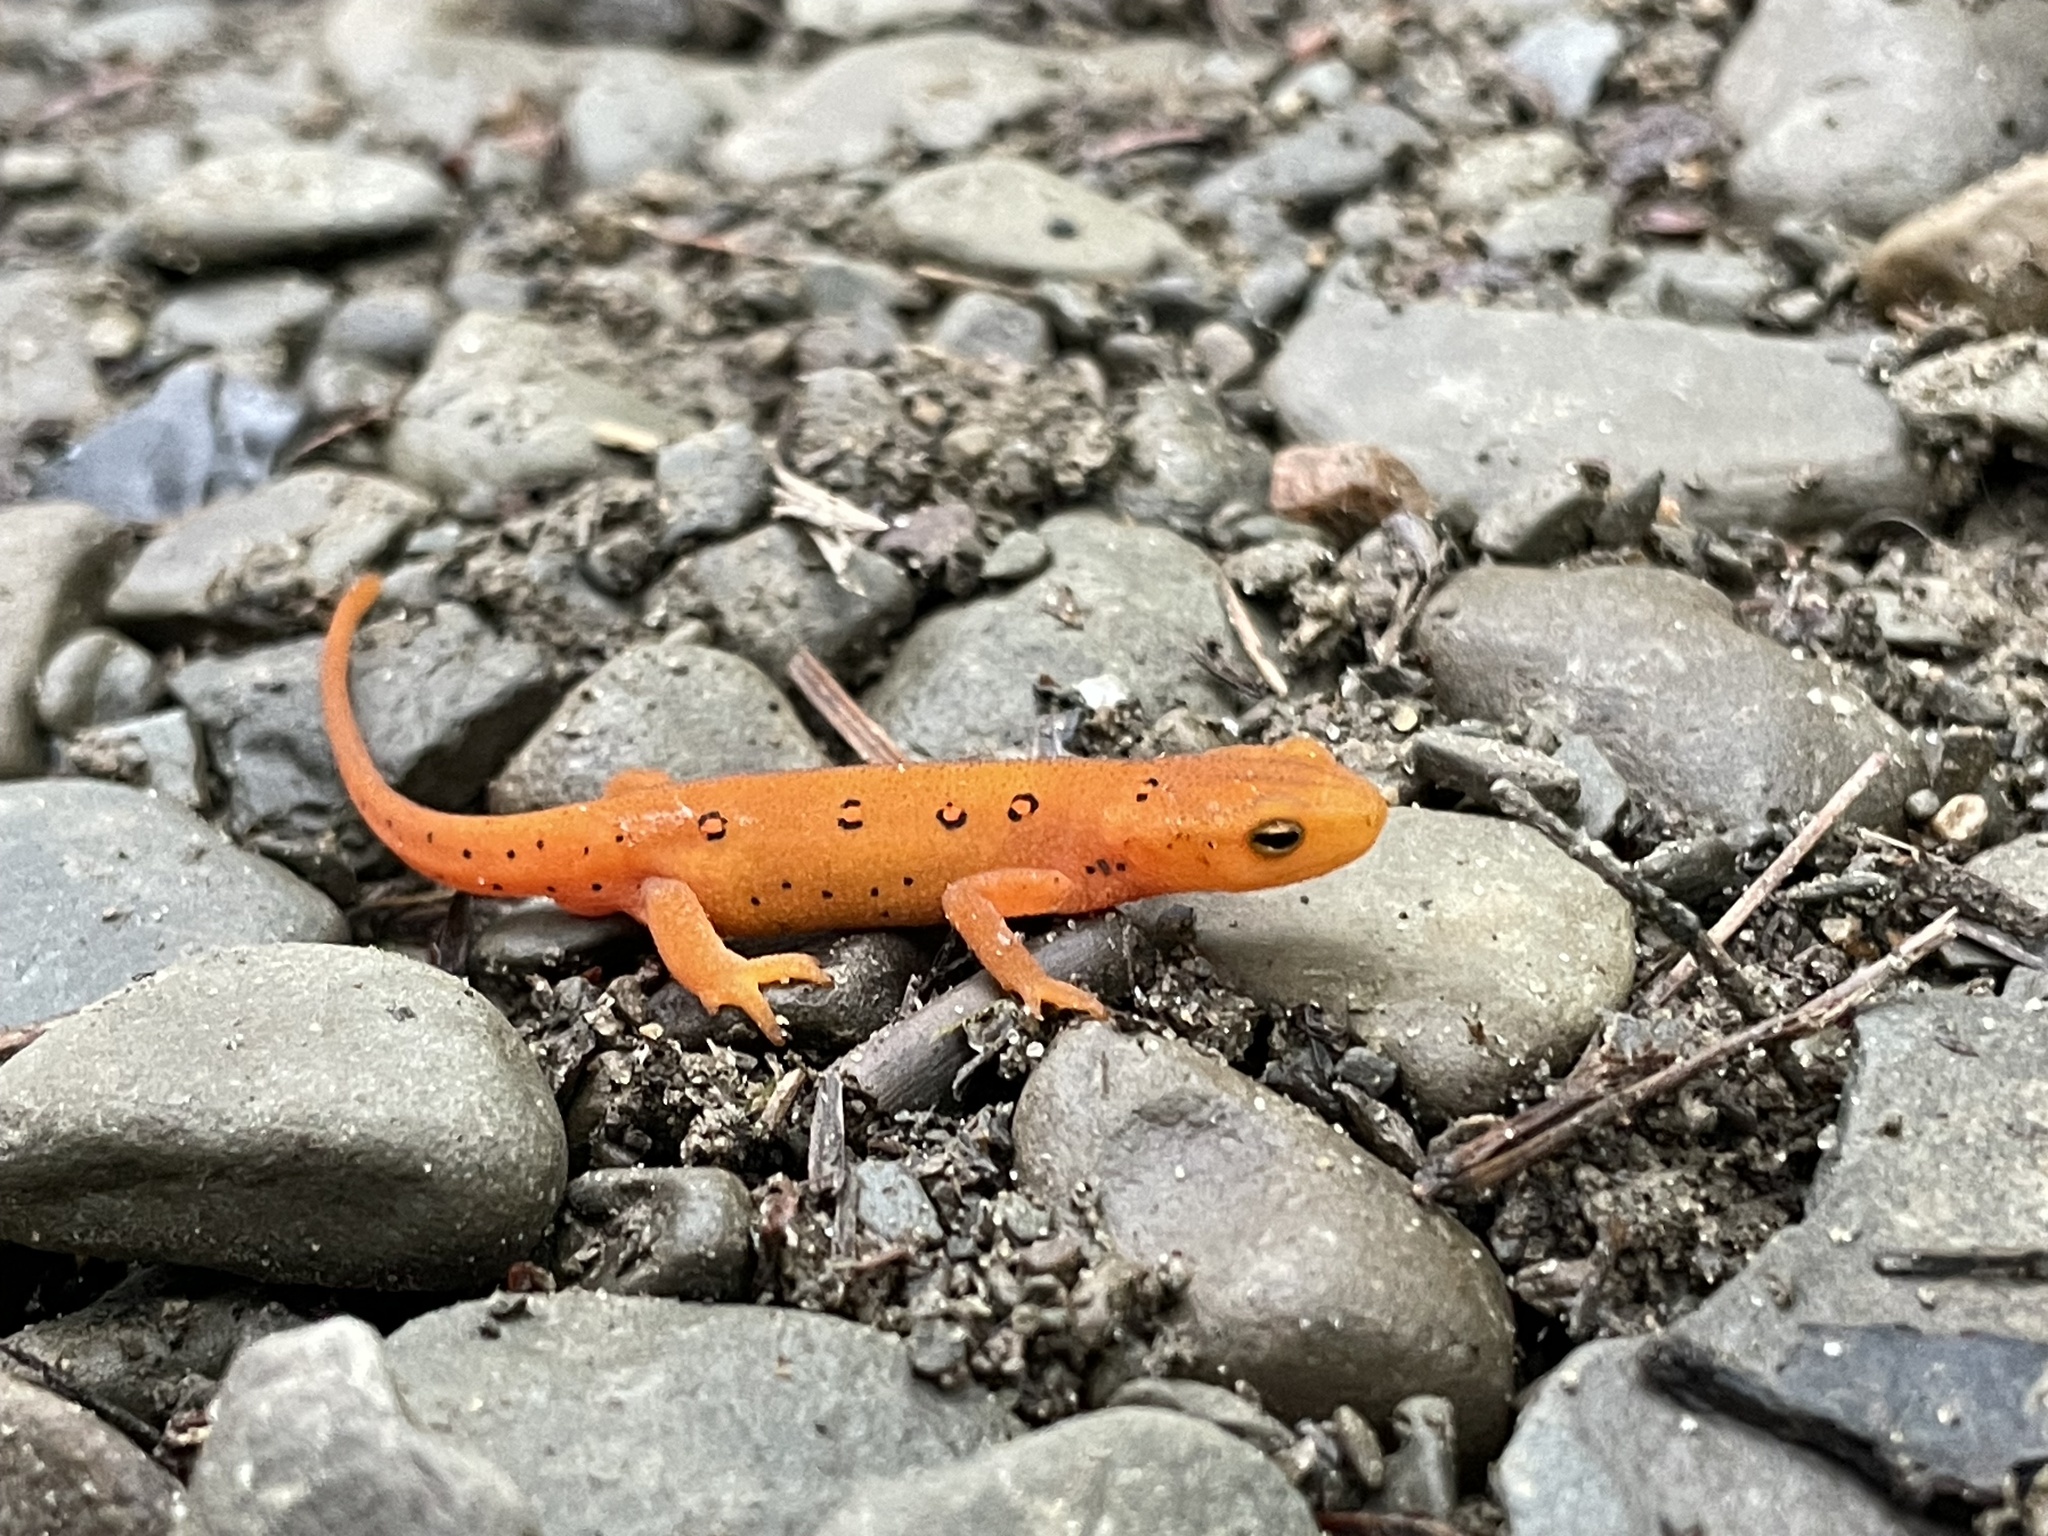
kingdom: Animalia
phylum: Chordata
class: Amphibia
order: Caudata
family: Salamandridae
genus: Notophthalmus
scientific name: Notophthalmus viridescens
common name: Eastern newt
